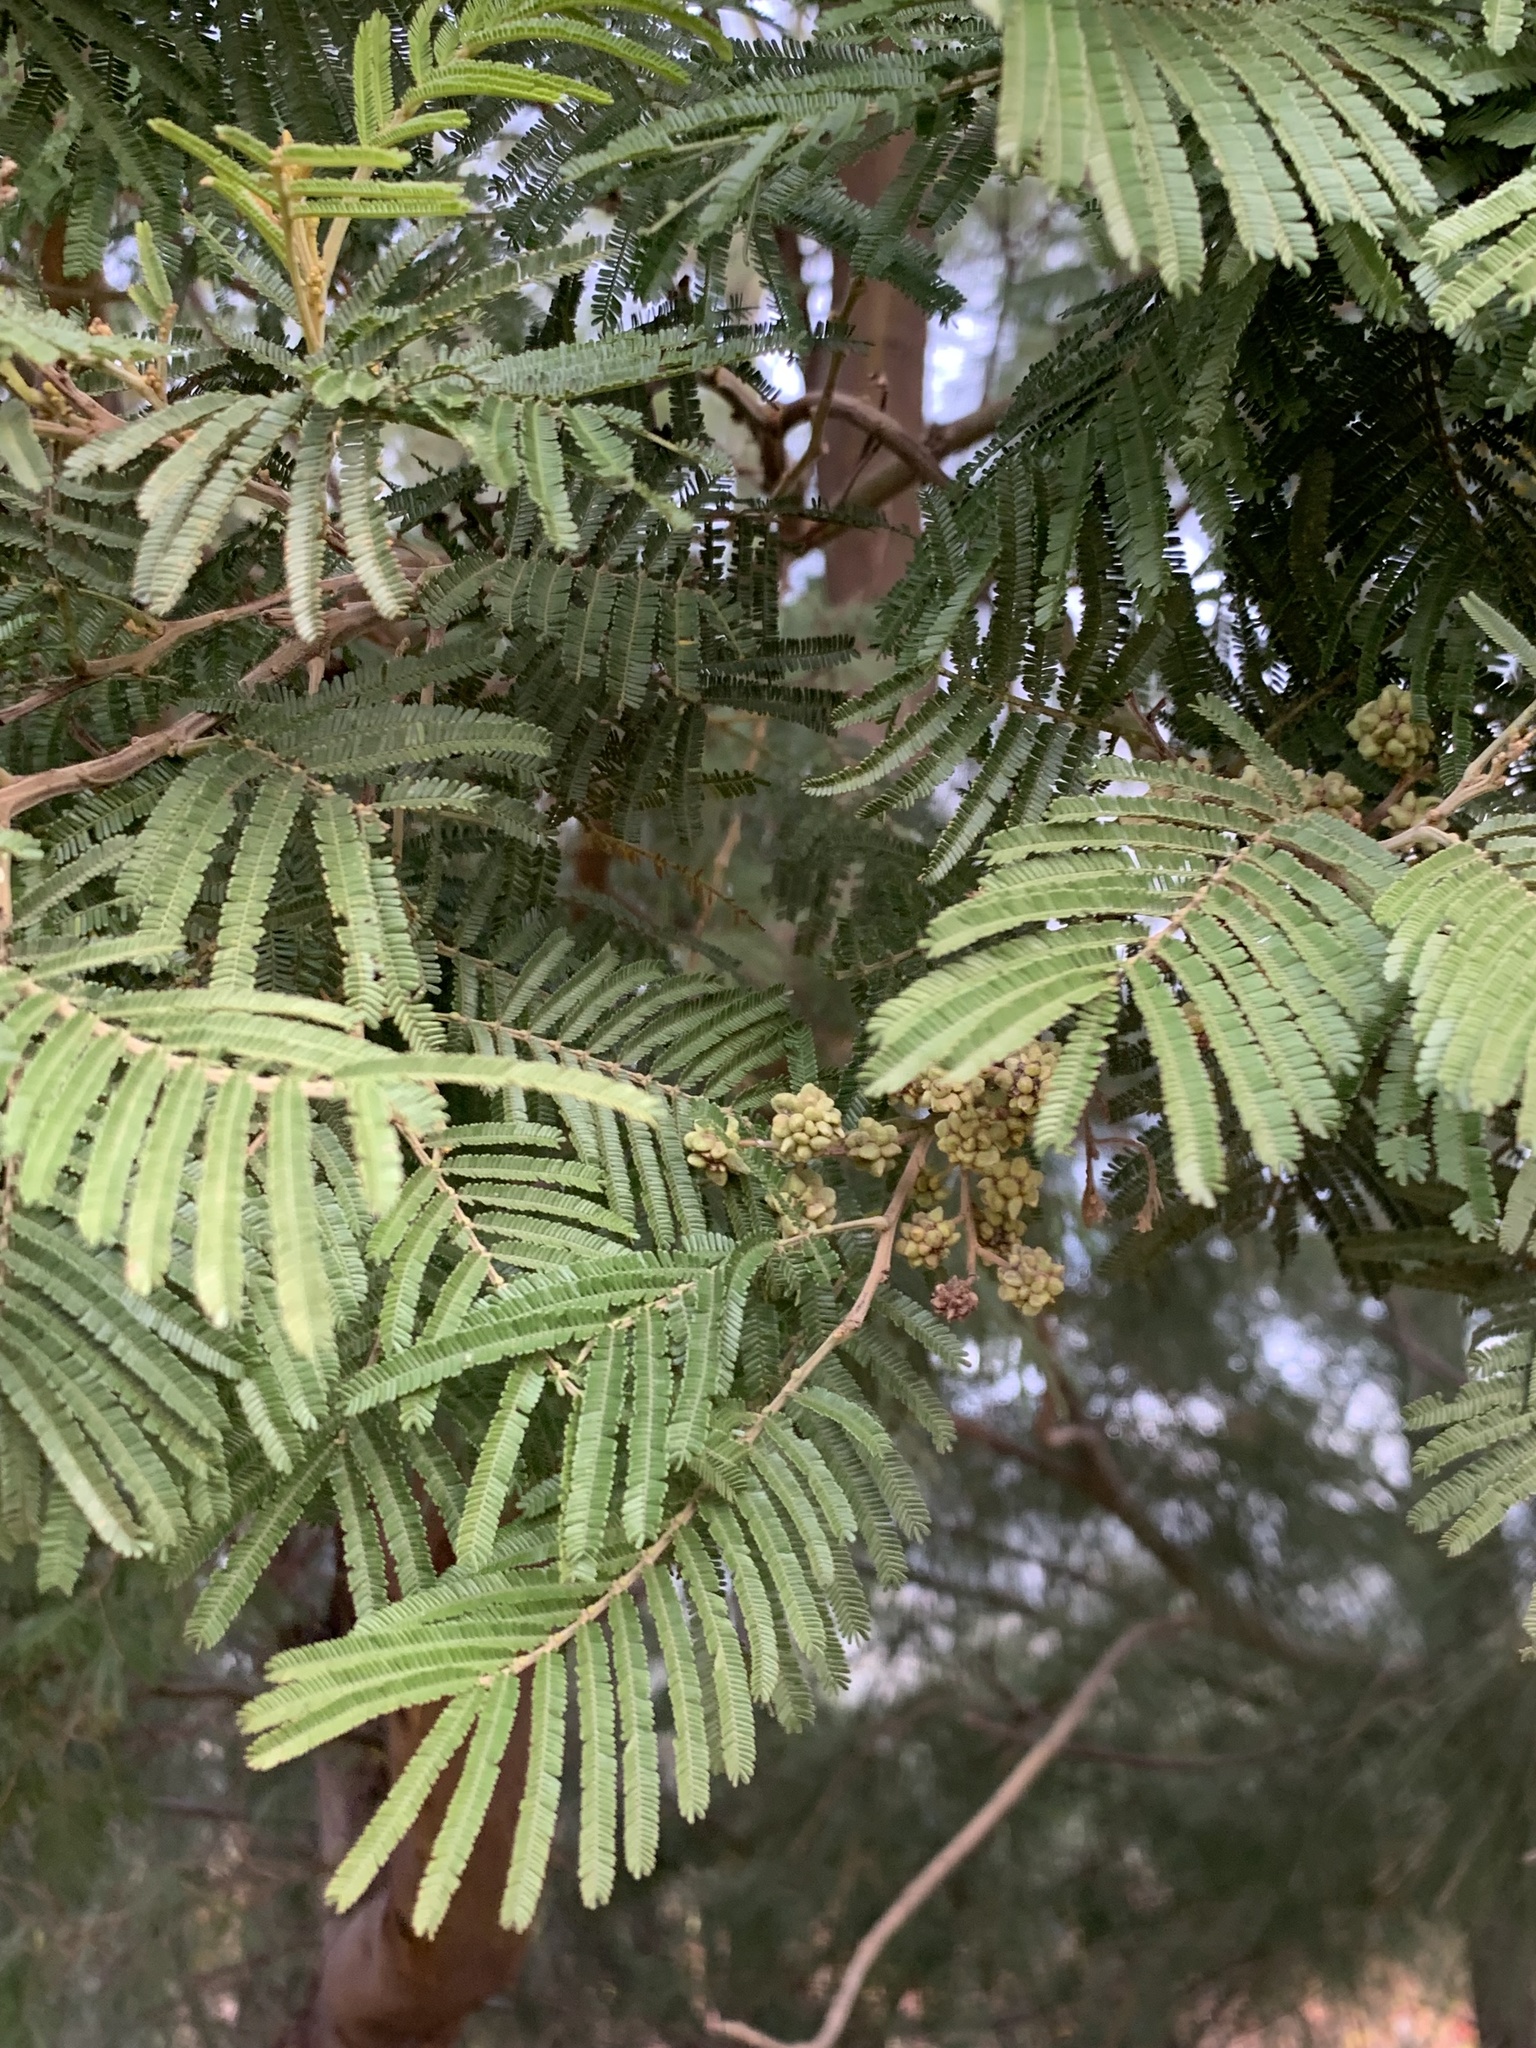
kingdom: Animalia
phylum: Arthropoda
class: Insecta
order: Diptera
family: Cecidomyiidae
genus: Dasineura
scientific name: Dasineura rubiformis
